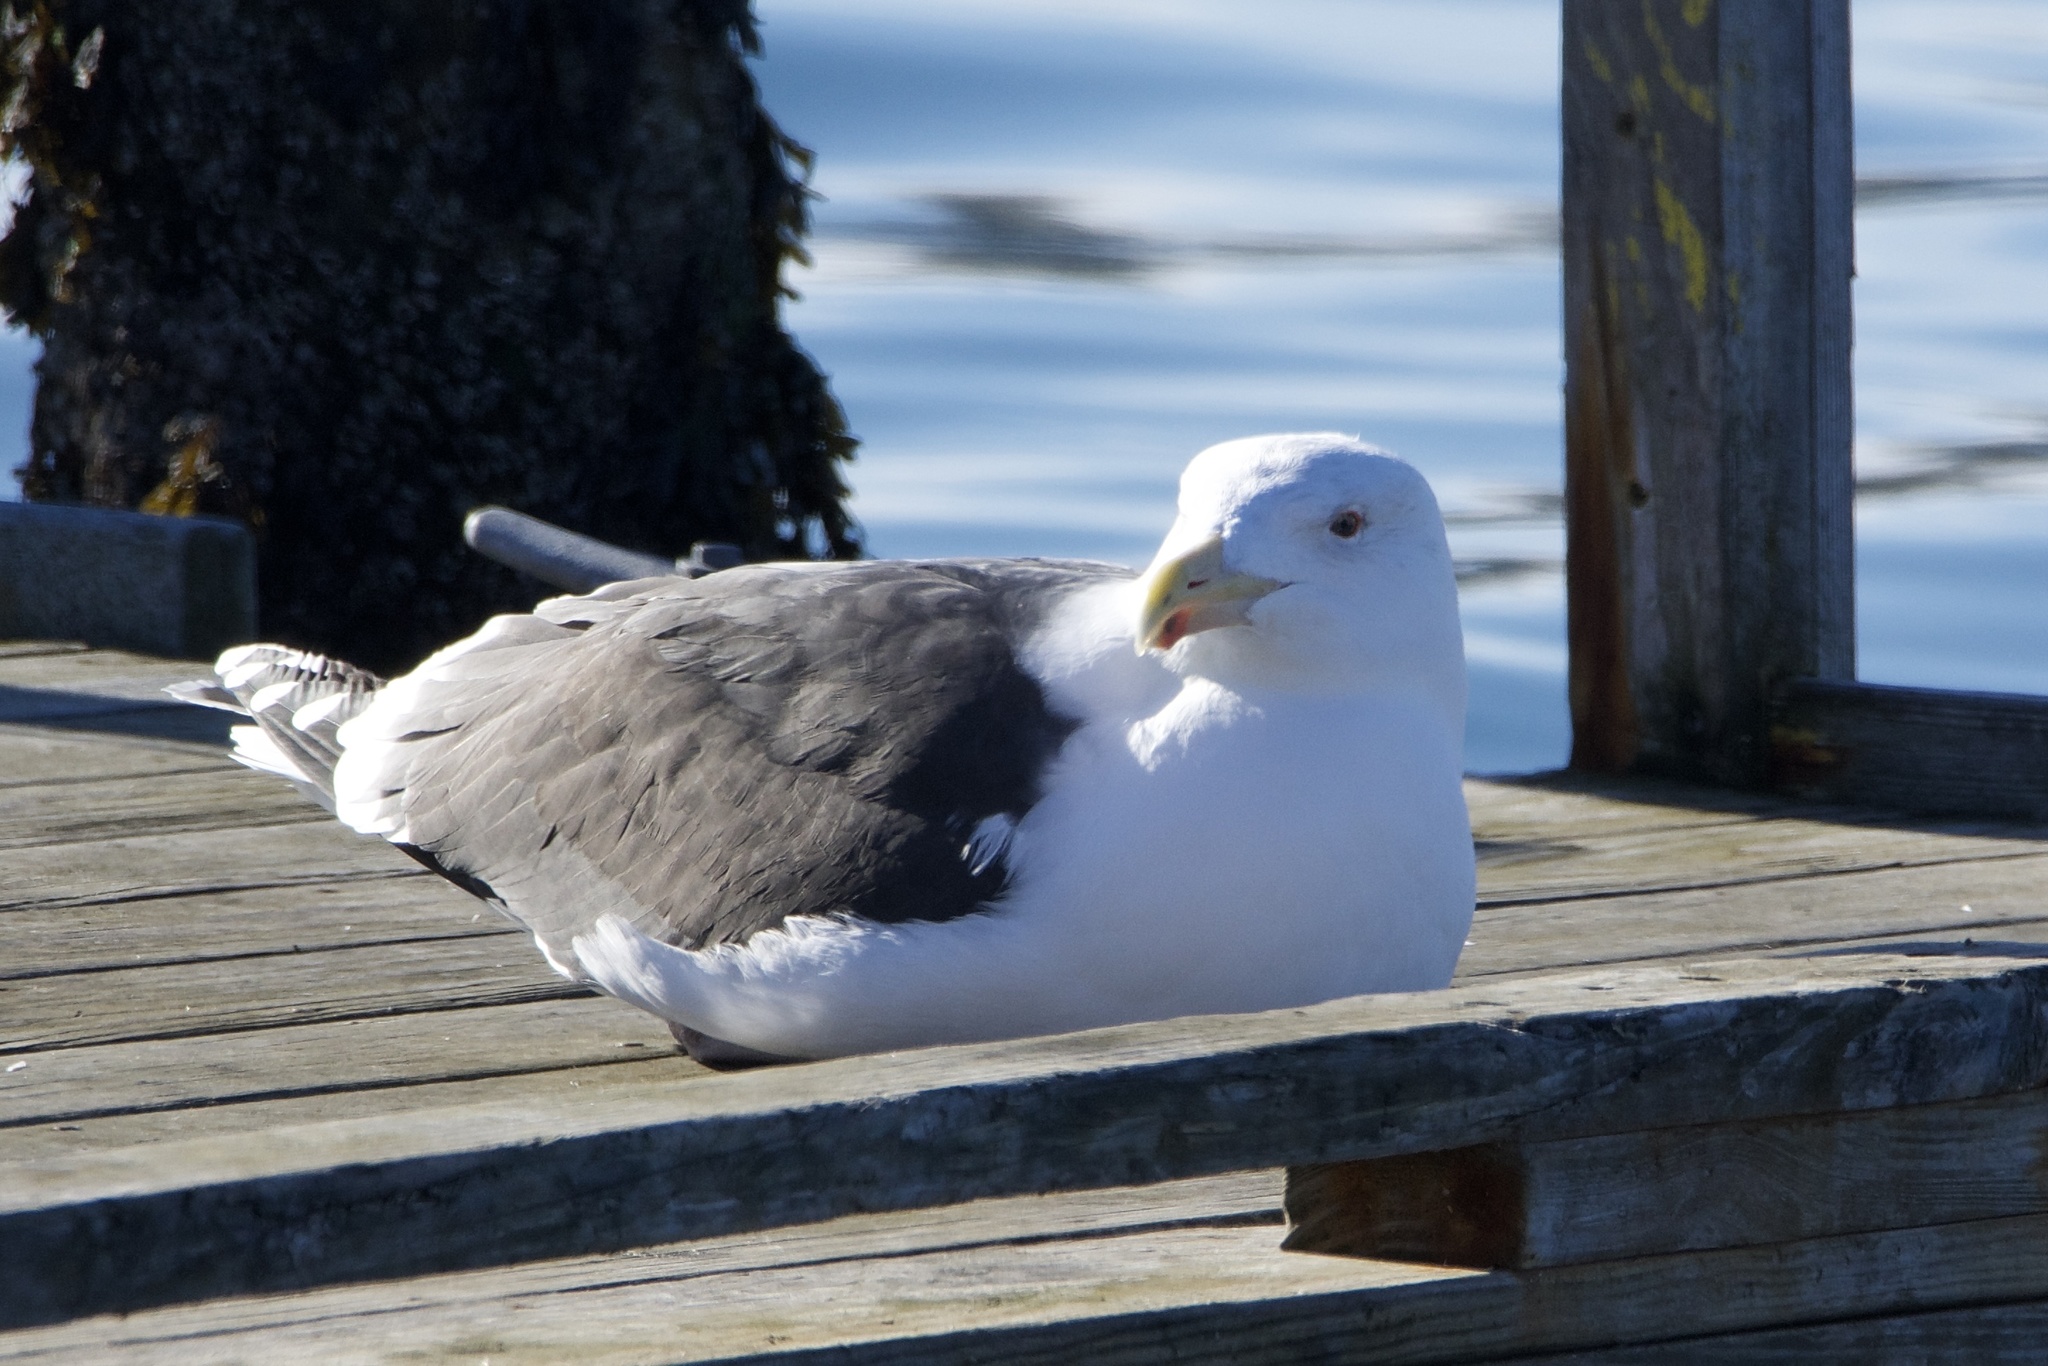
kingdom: Animalia
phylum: Chordata
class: Aves
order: Charadriiformes
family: Laridae
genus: Larus
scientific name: Larus marinus
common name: Great black-backed gull
